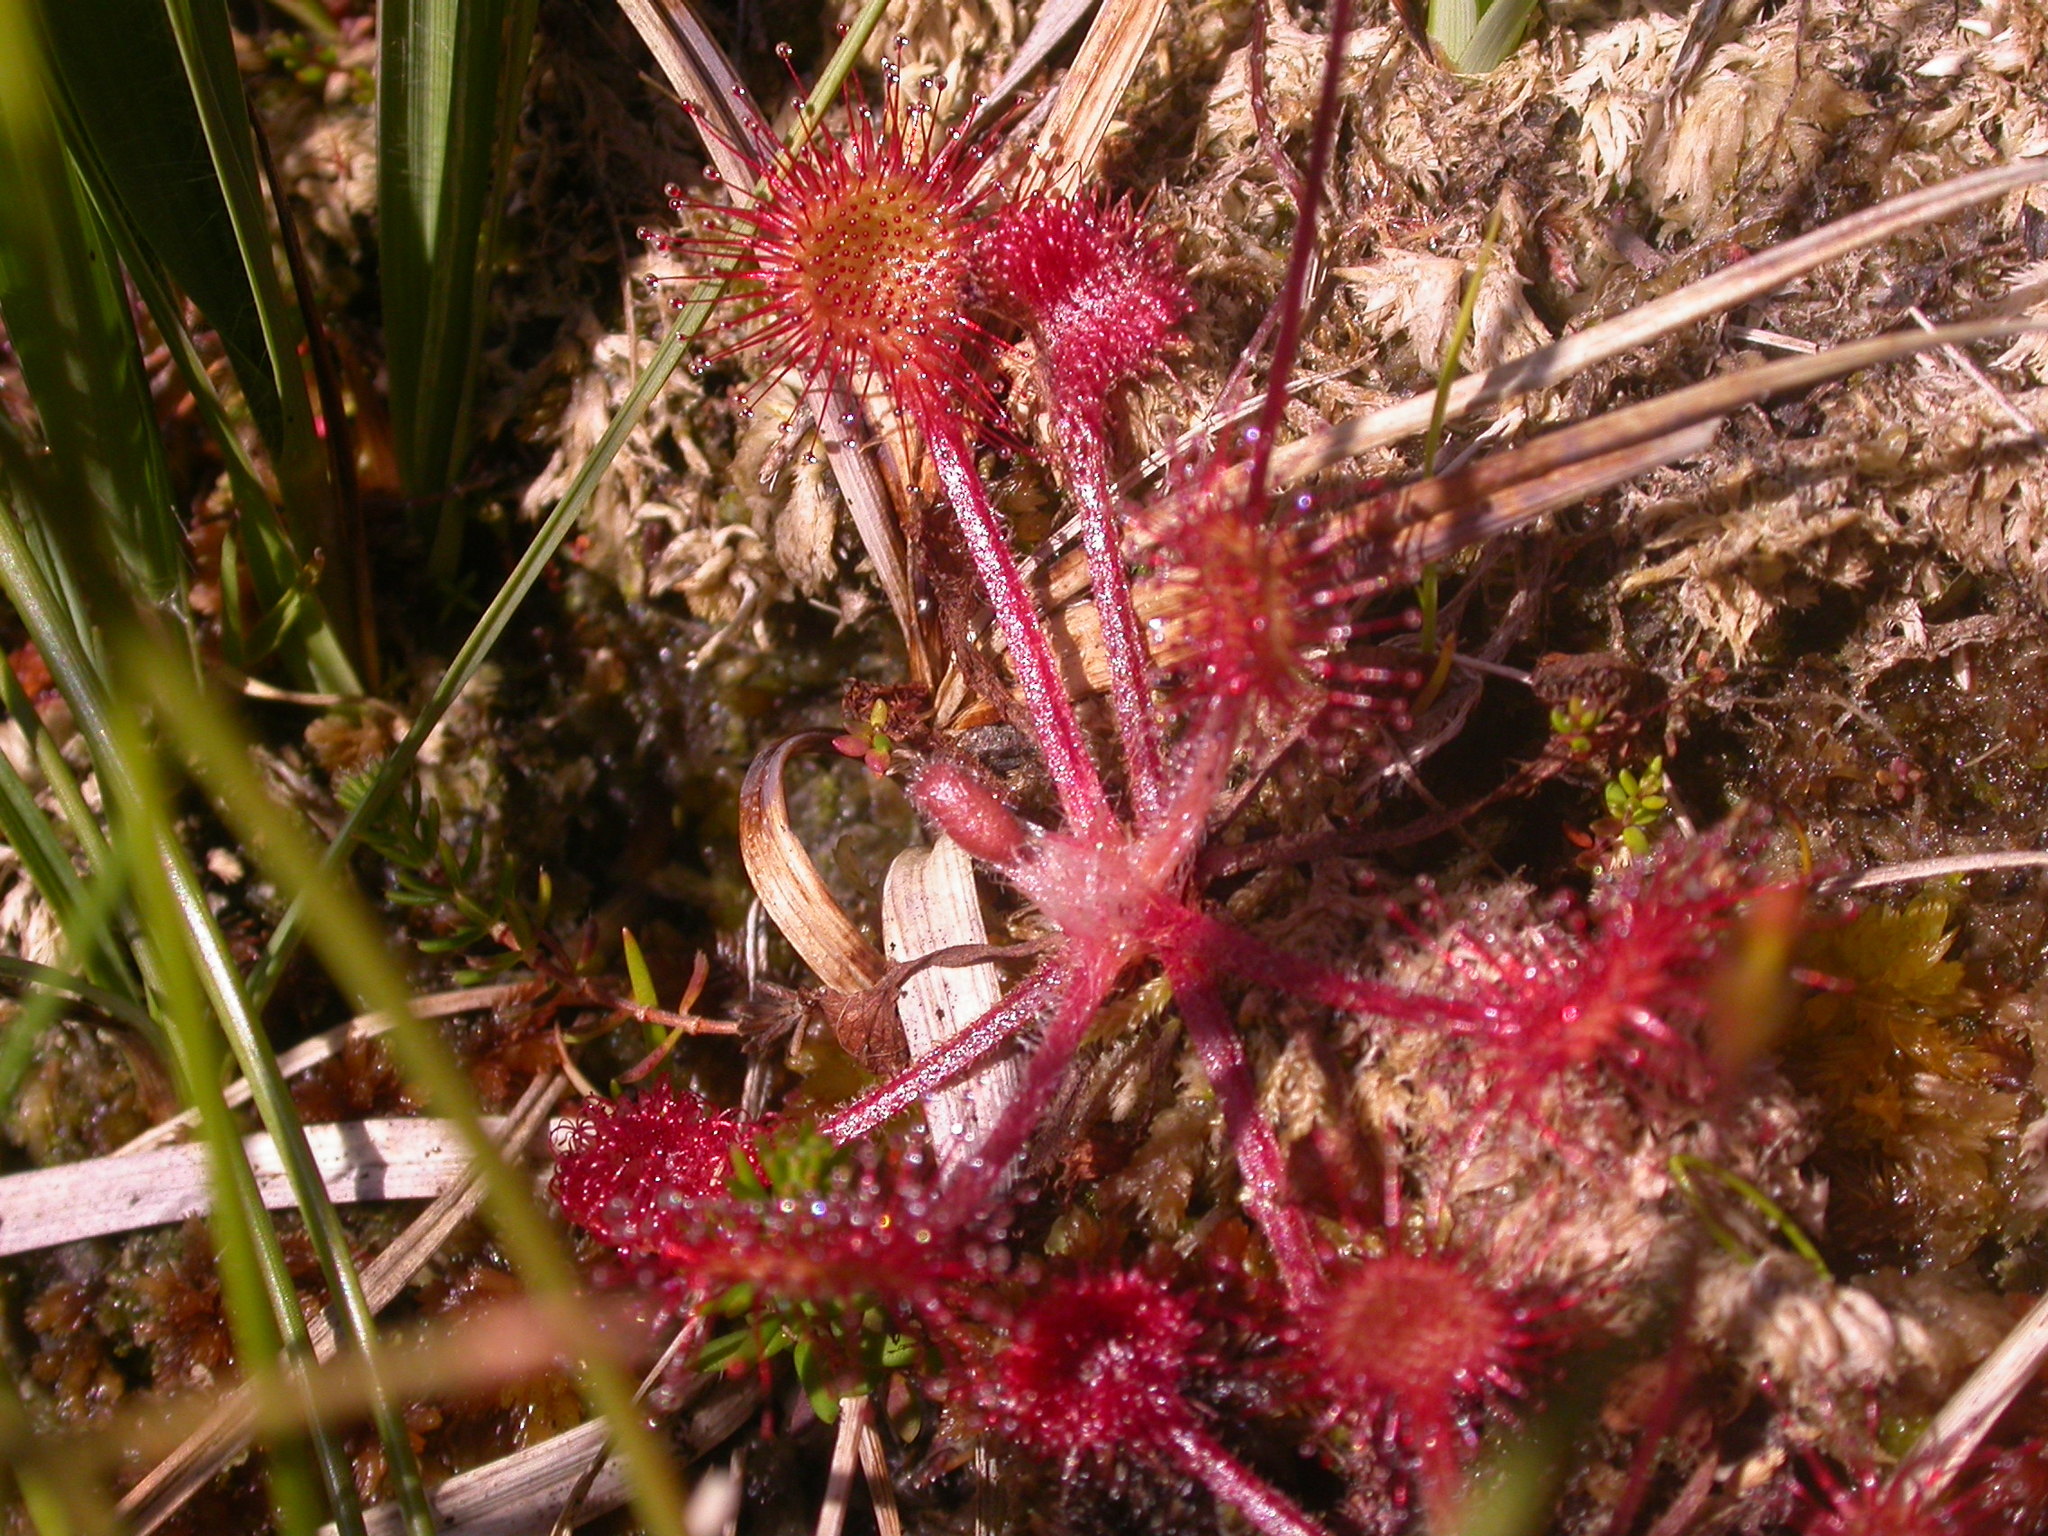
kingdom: Plantae
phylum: Tracheophyta
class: Magnoliopsida
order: Caryophyllales
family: Droseraceae
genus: Drosera
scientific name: Drosera rotundifolia
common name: Round-leaved sundew
